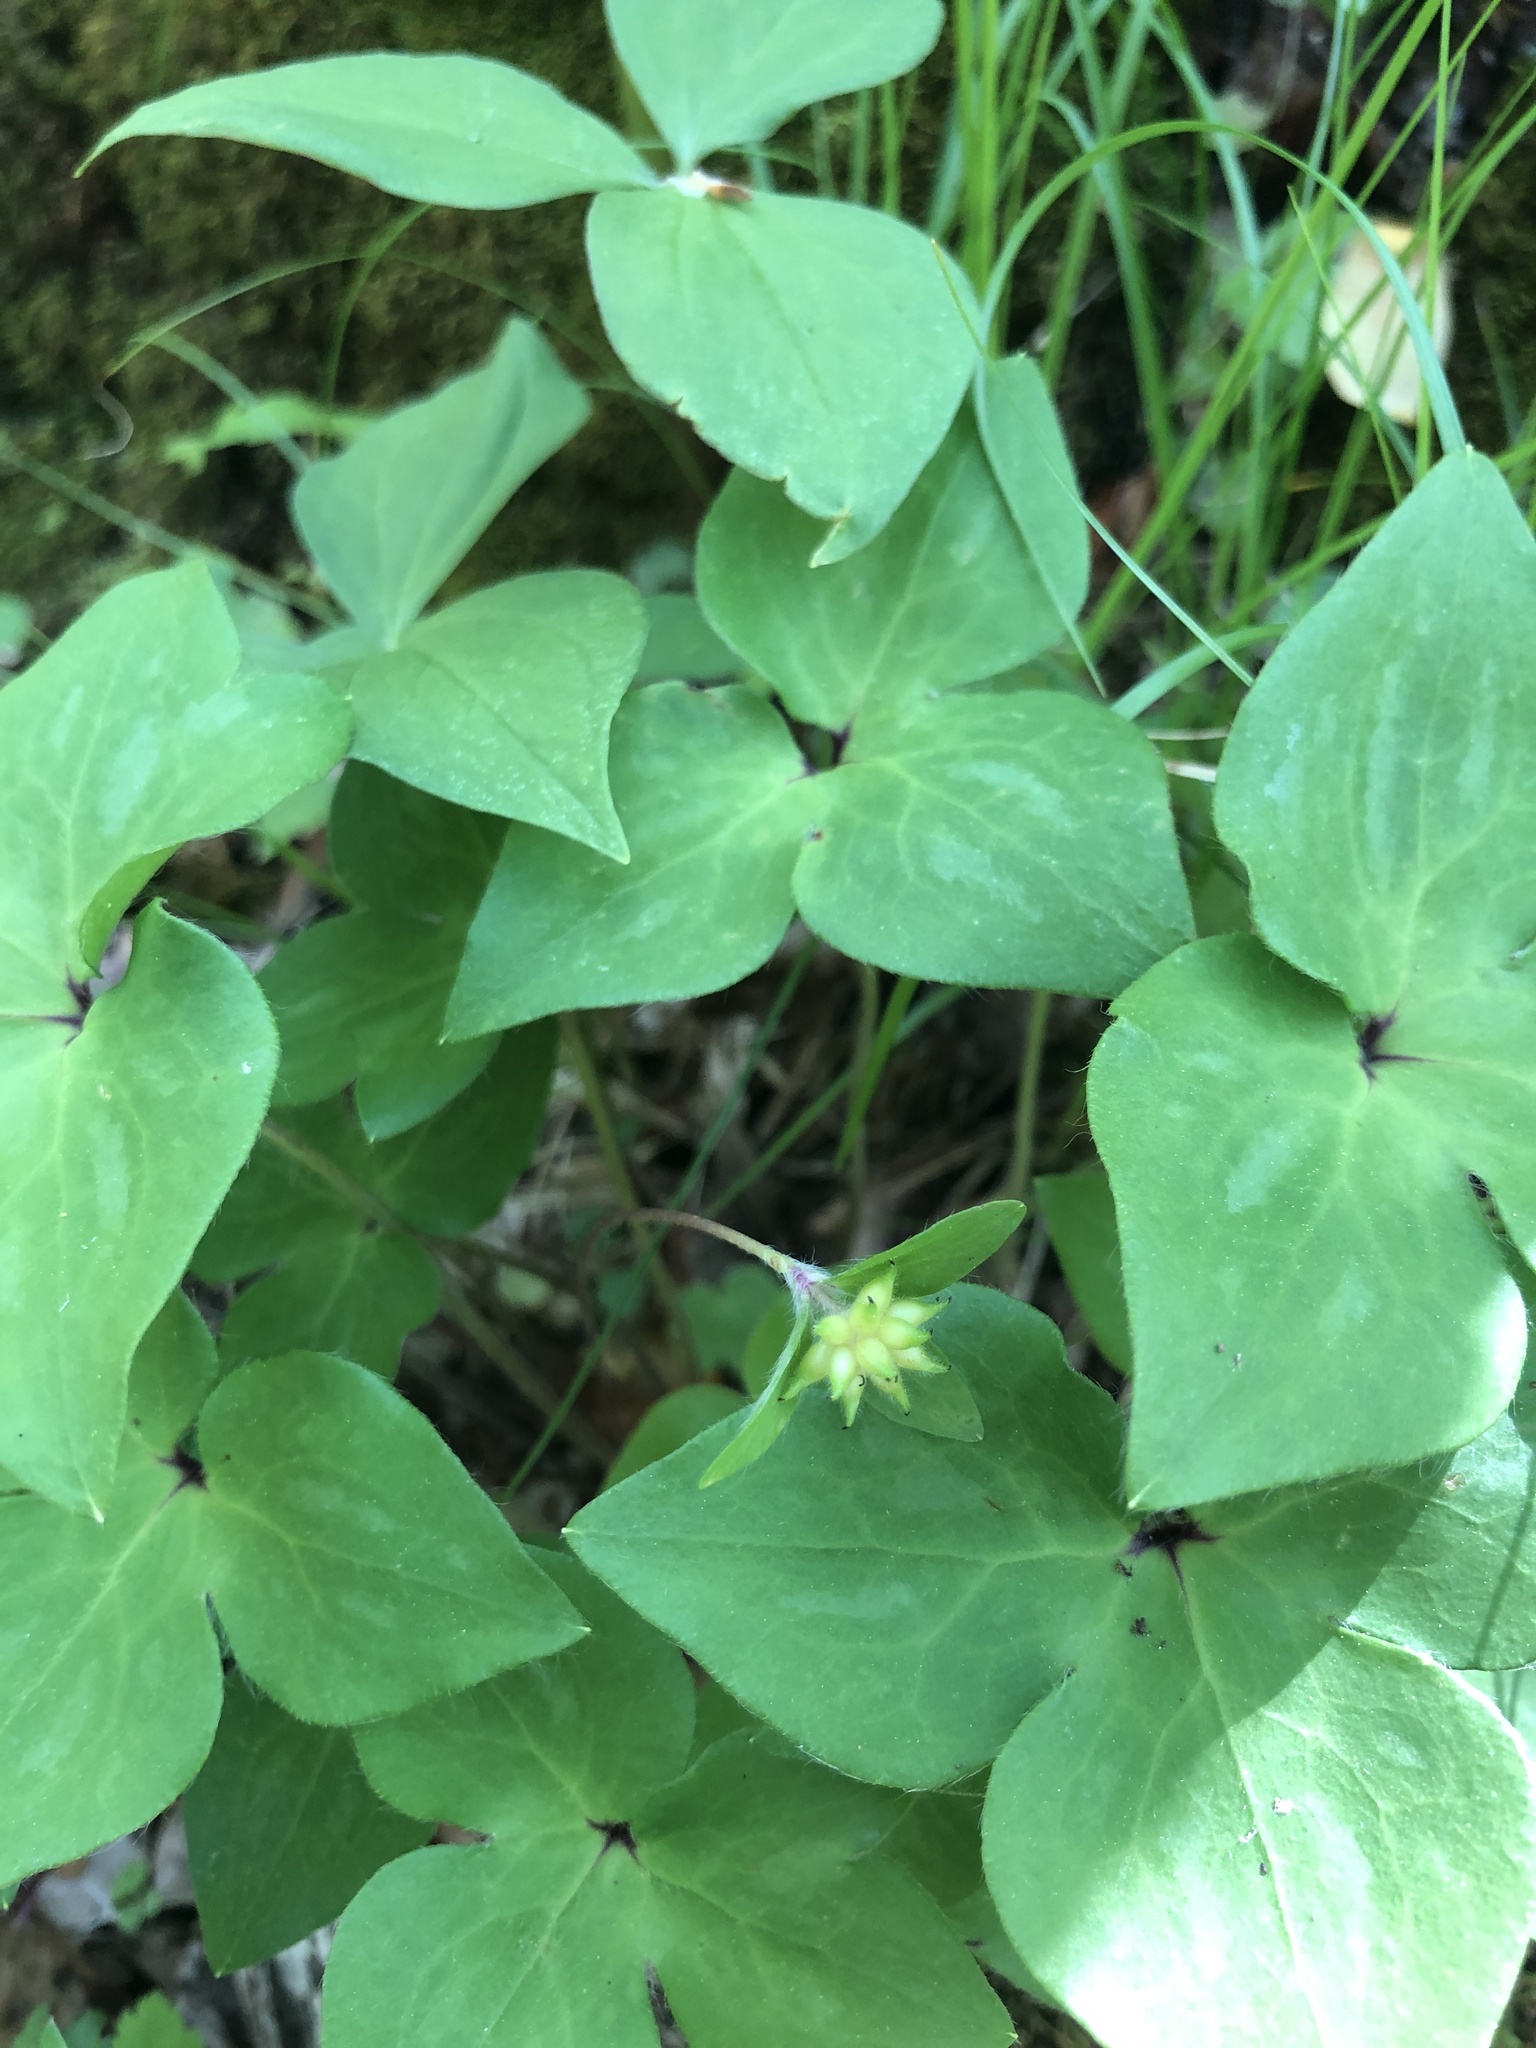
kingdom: Plantae
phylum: Tracheophyta
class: Magnoliopsida
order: Ranunculales
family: Ranunculaceae
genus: Hepatica
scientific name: Hepatica acutiloba
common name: Sharp-lobed hepatica
